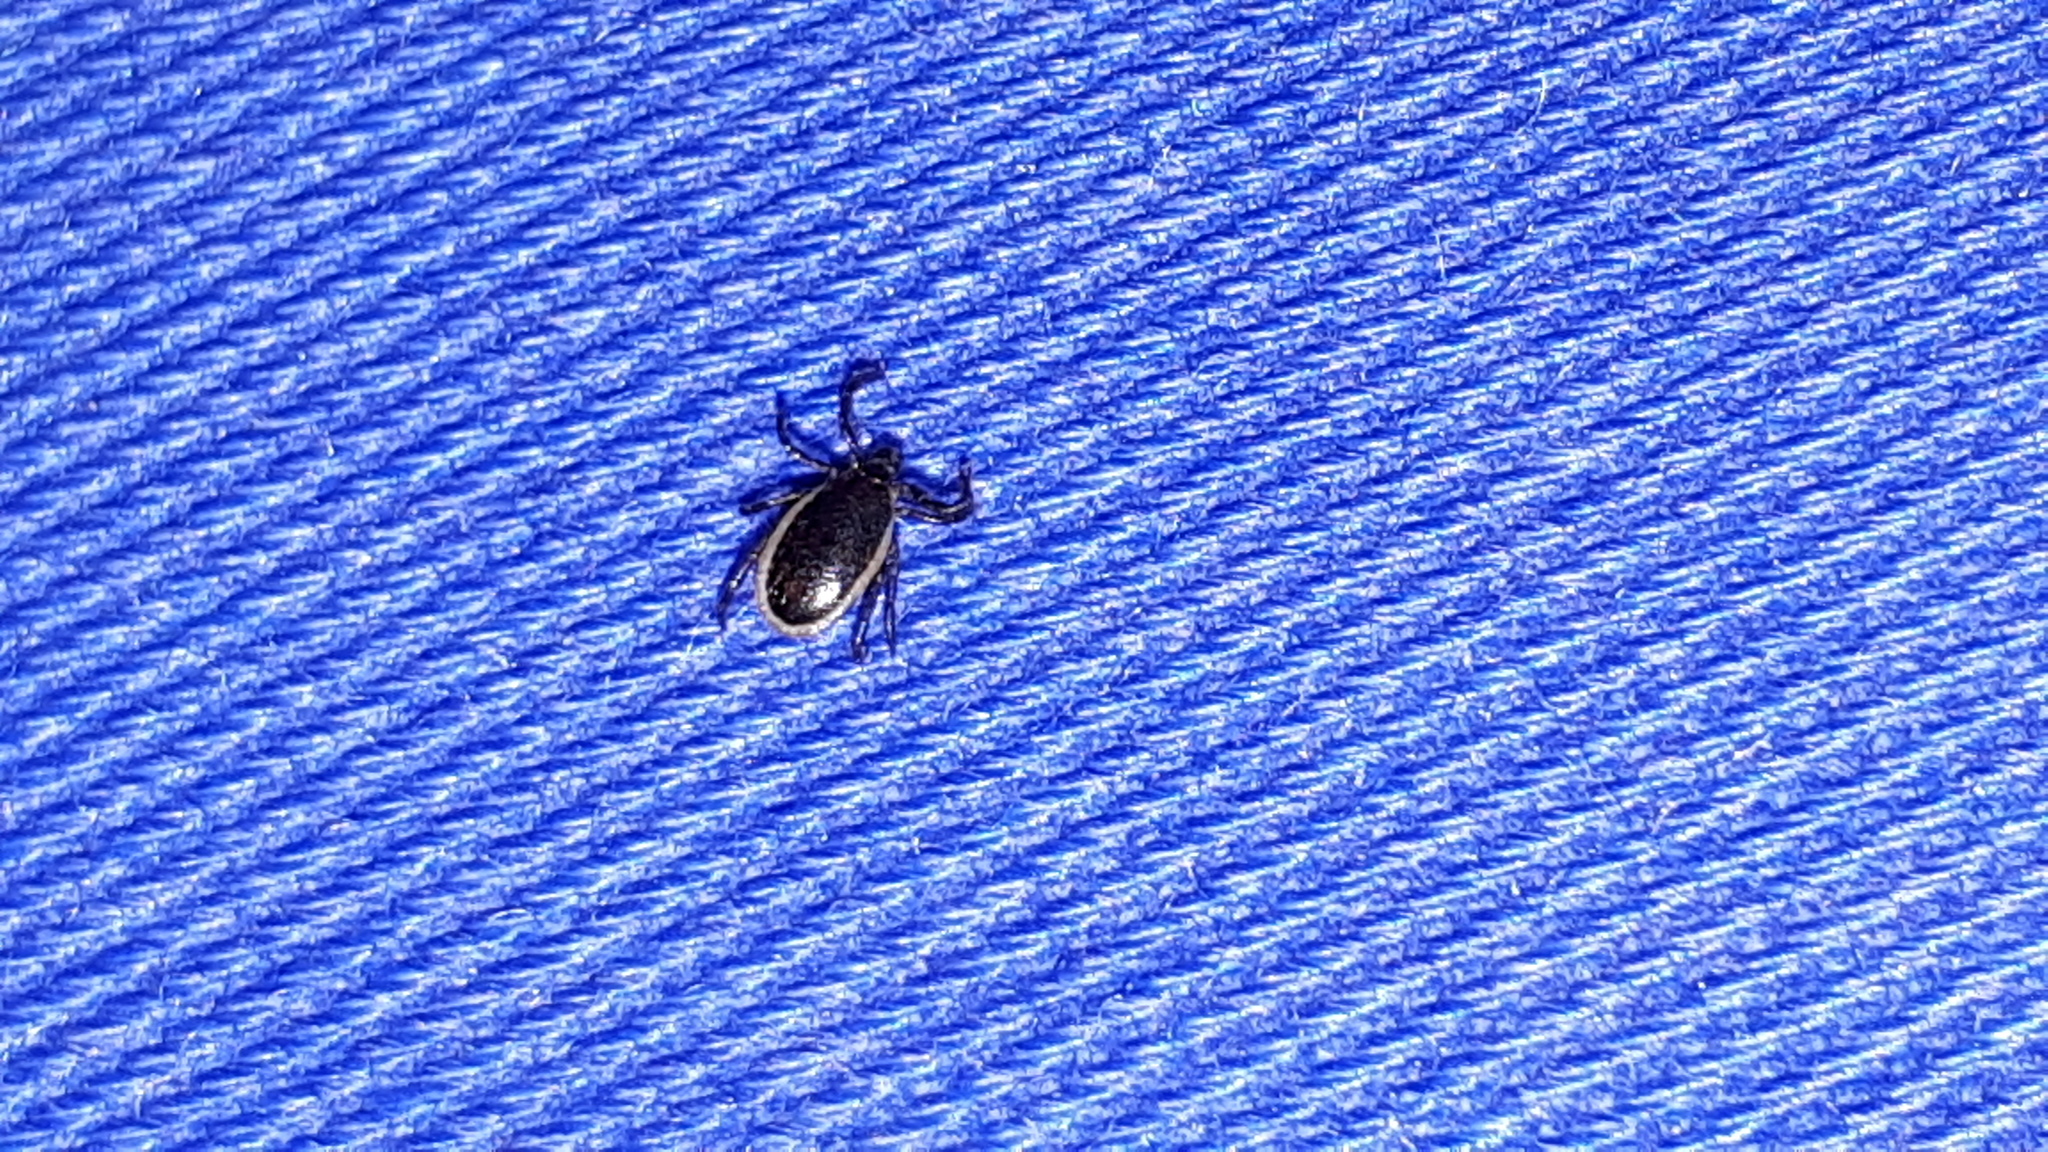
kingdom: Animalia
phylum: Arthropoda
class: Arachnida
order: Ixodida
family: Ixodidae
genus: Ixodes
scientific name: Ixodes ricinus
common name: Castor bean tick
